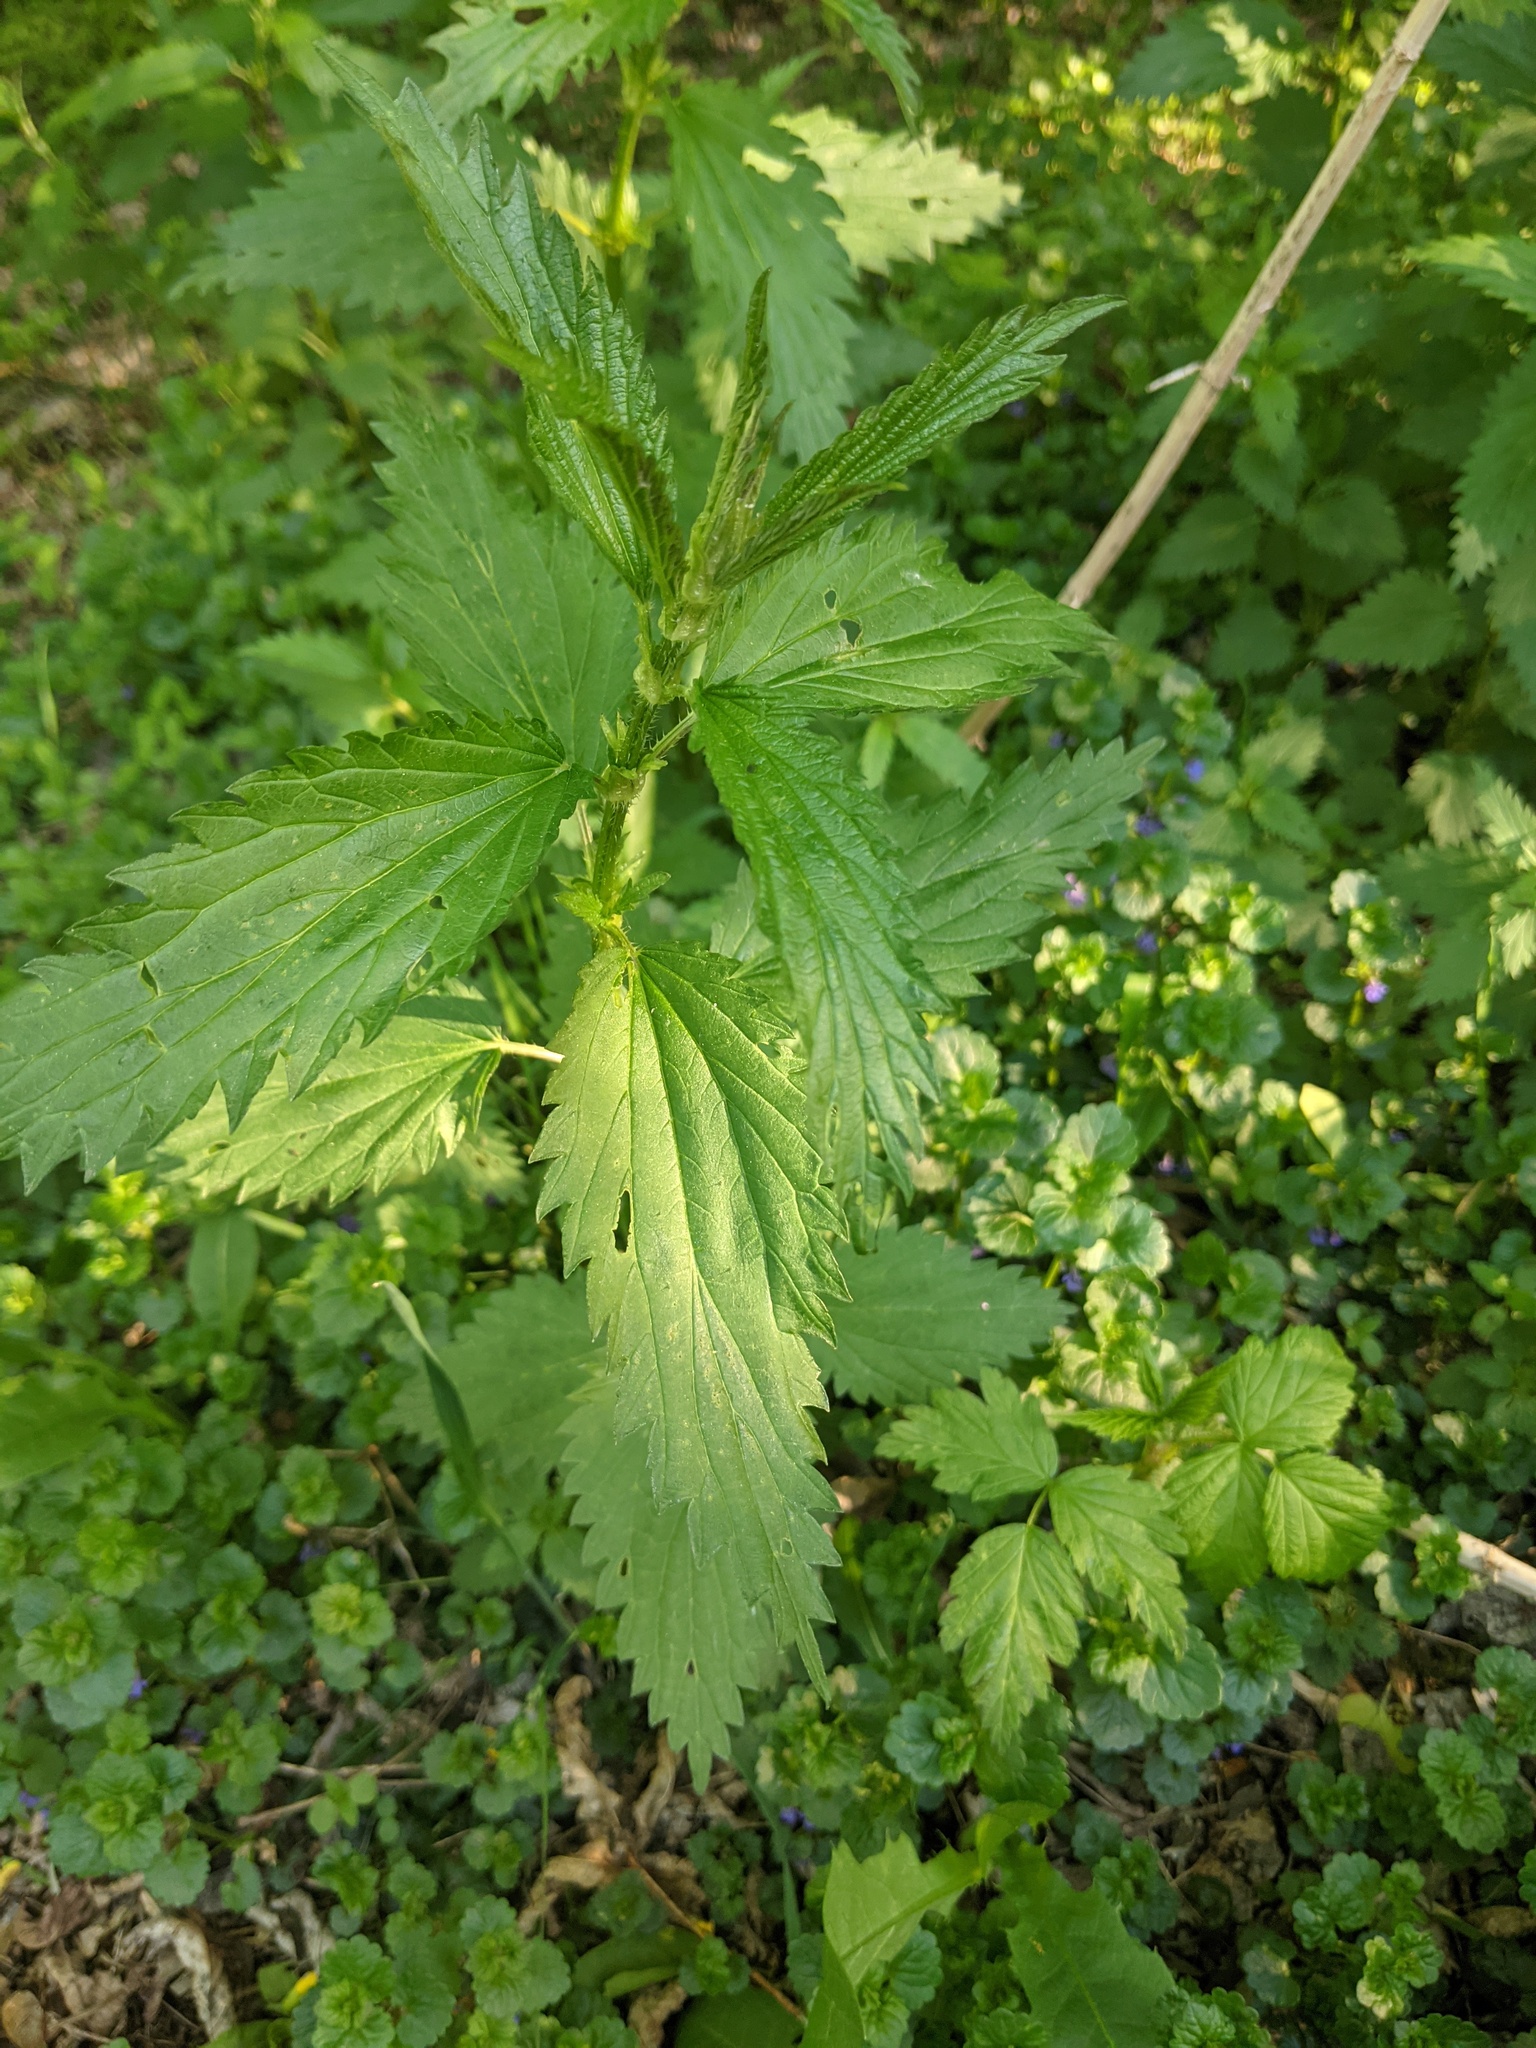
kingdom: Plantae
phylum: Tracheophyta
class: Magnoliopsida
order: Rosales
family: Urticaceae
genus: Urtica
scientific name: Urtica gracilis
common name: Slender stinging nettle
